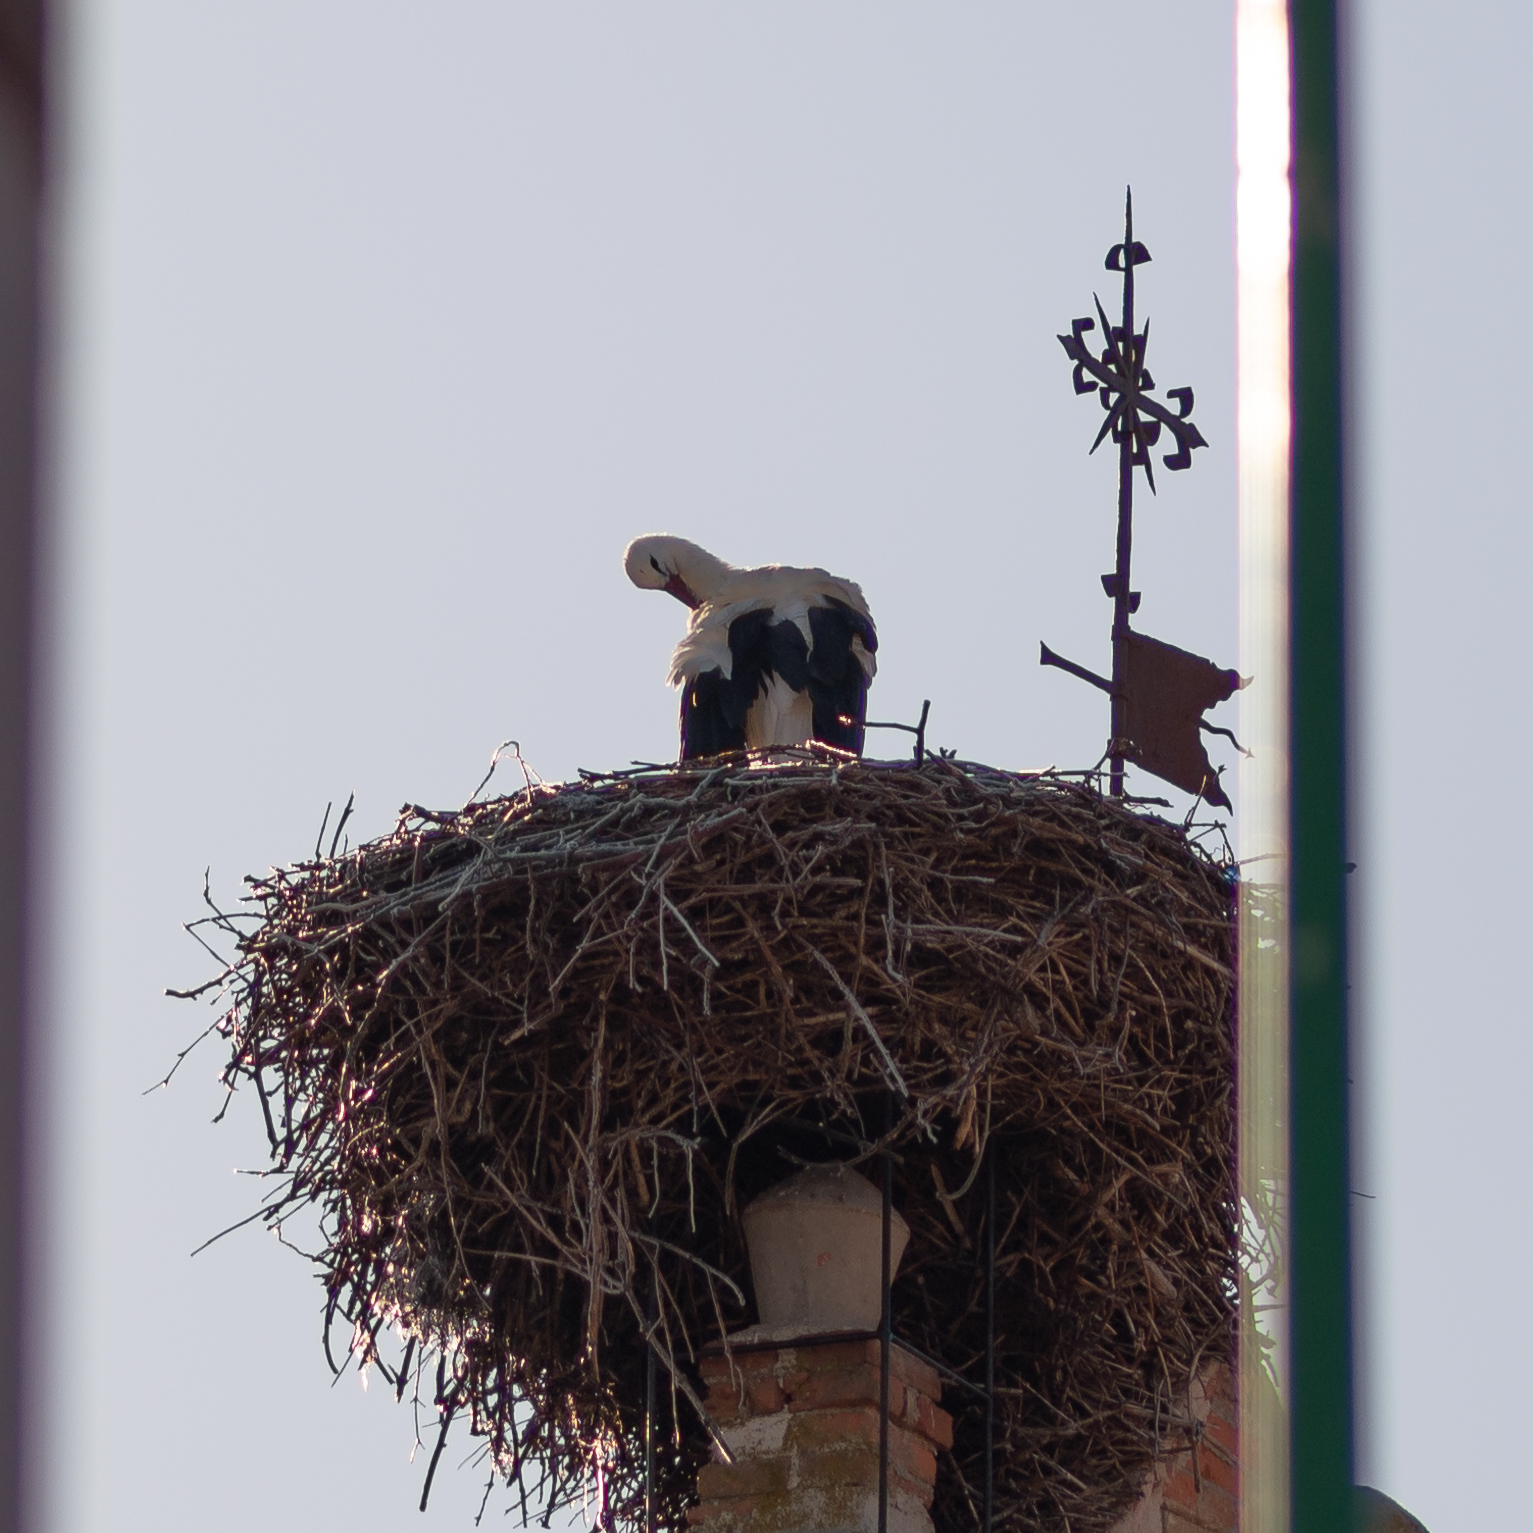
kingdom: Animalia
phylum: Chordata
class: Aves
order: Ciconiiformes
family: Ciconiidae
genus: Ciconia
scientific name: Ciconia ciconia
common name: White stork
